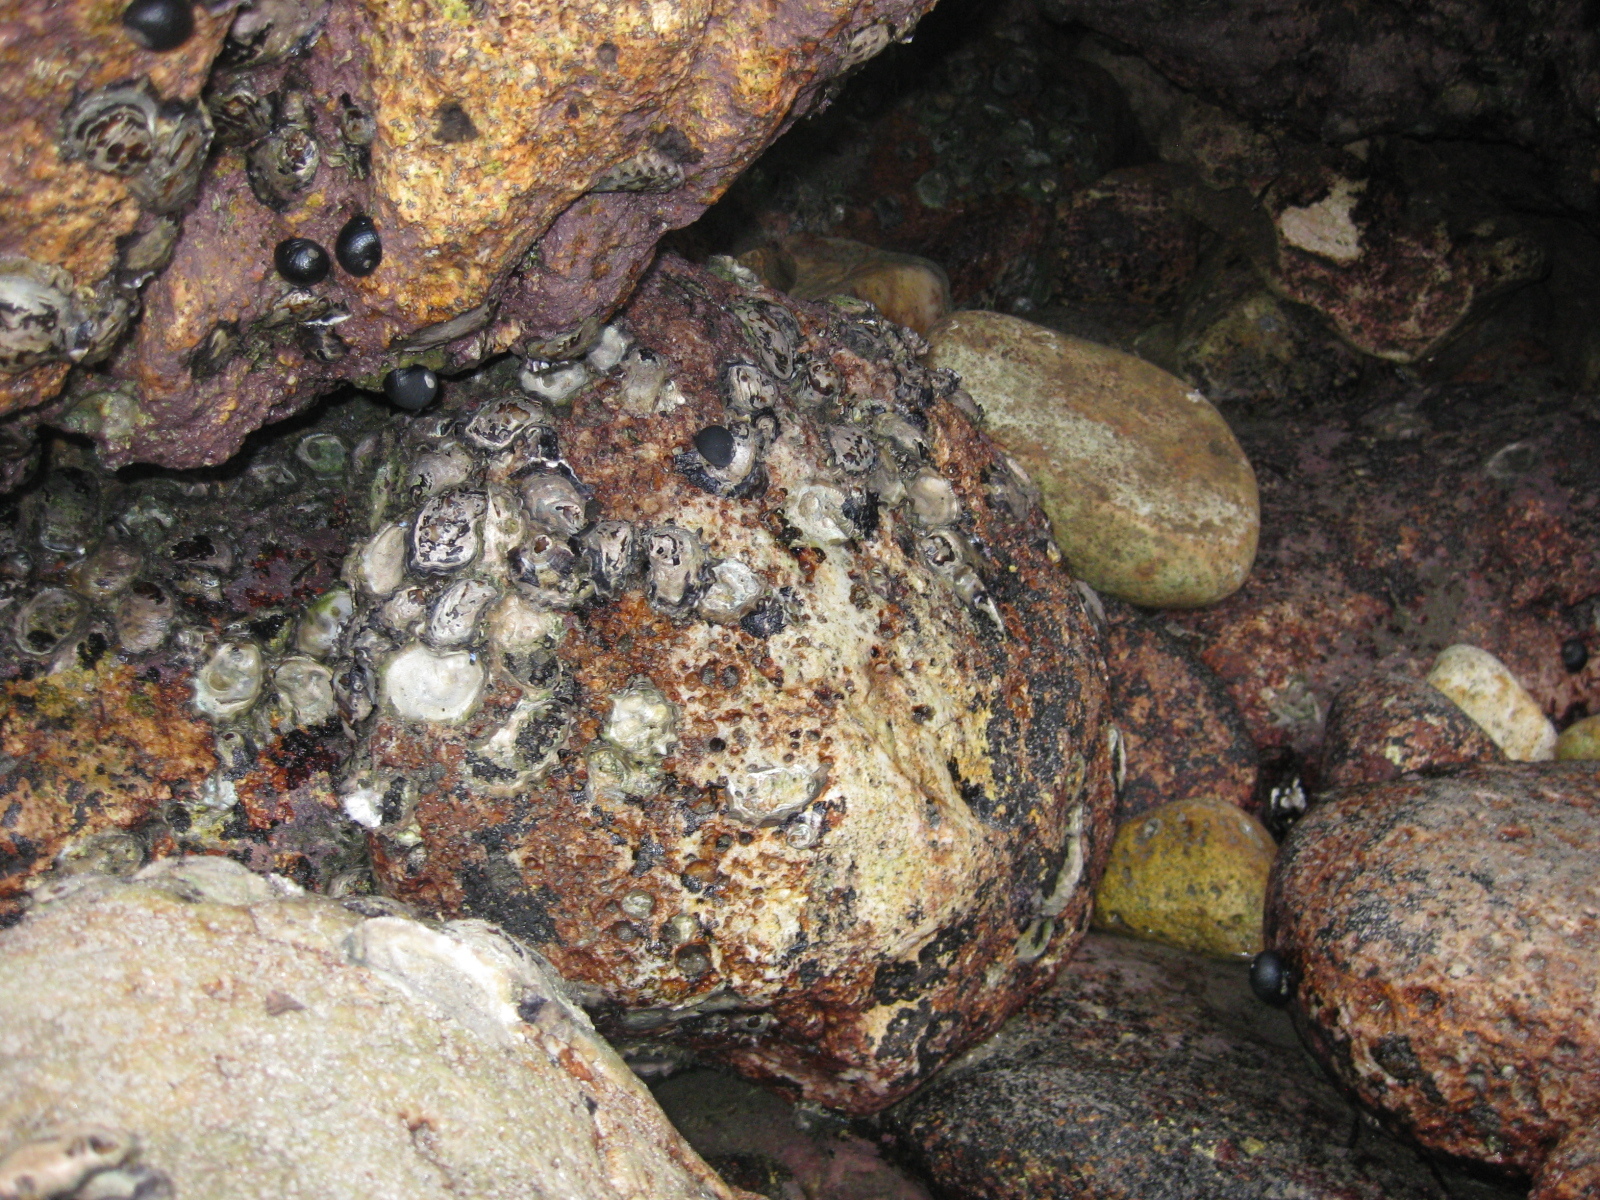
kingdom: Animalia
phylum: Mollusca
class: Bivalvia
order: Ostreida
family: Ostreidae
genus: Saccostrea
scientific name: Saccostrea glomerata
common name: Sydney cupped oyster
